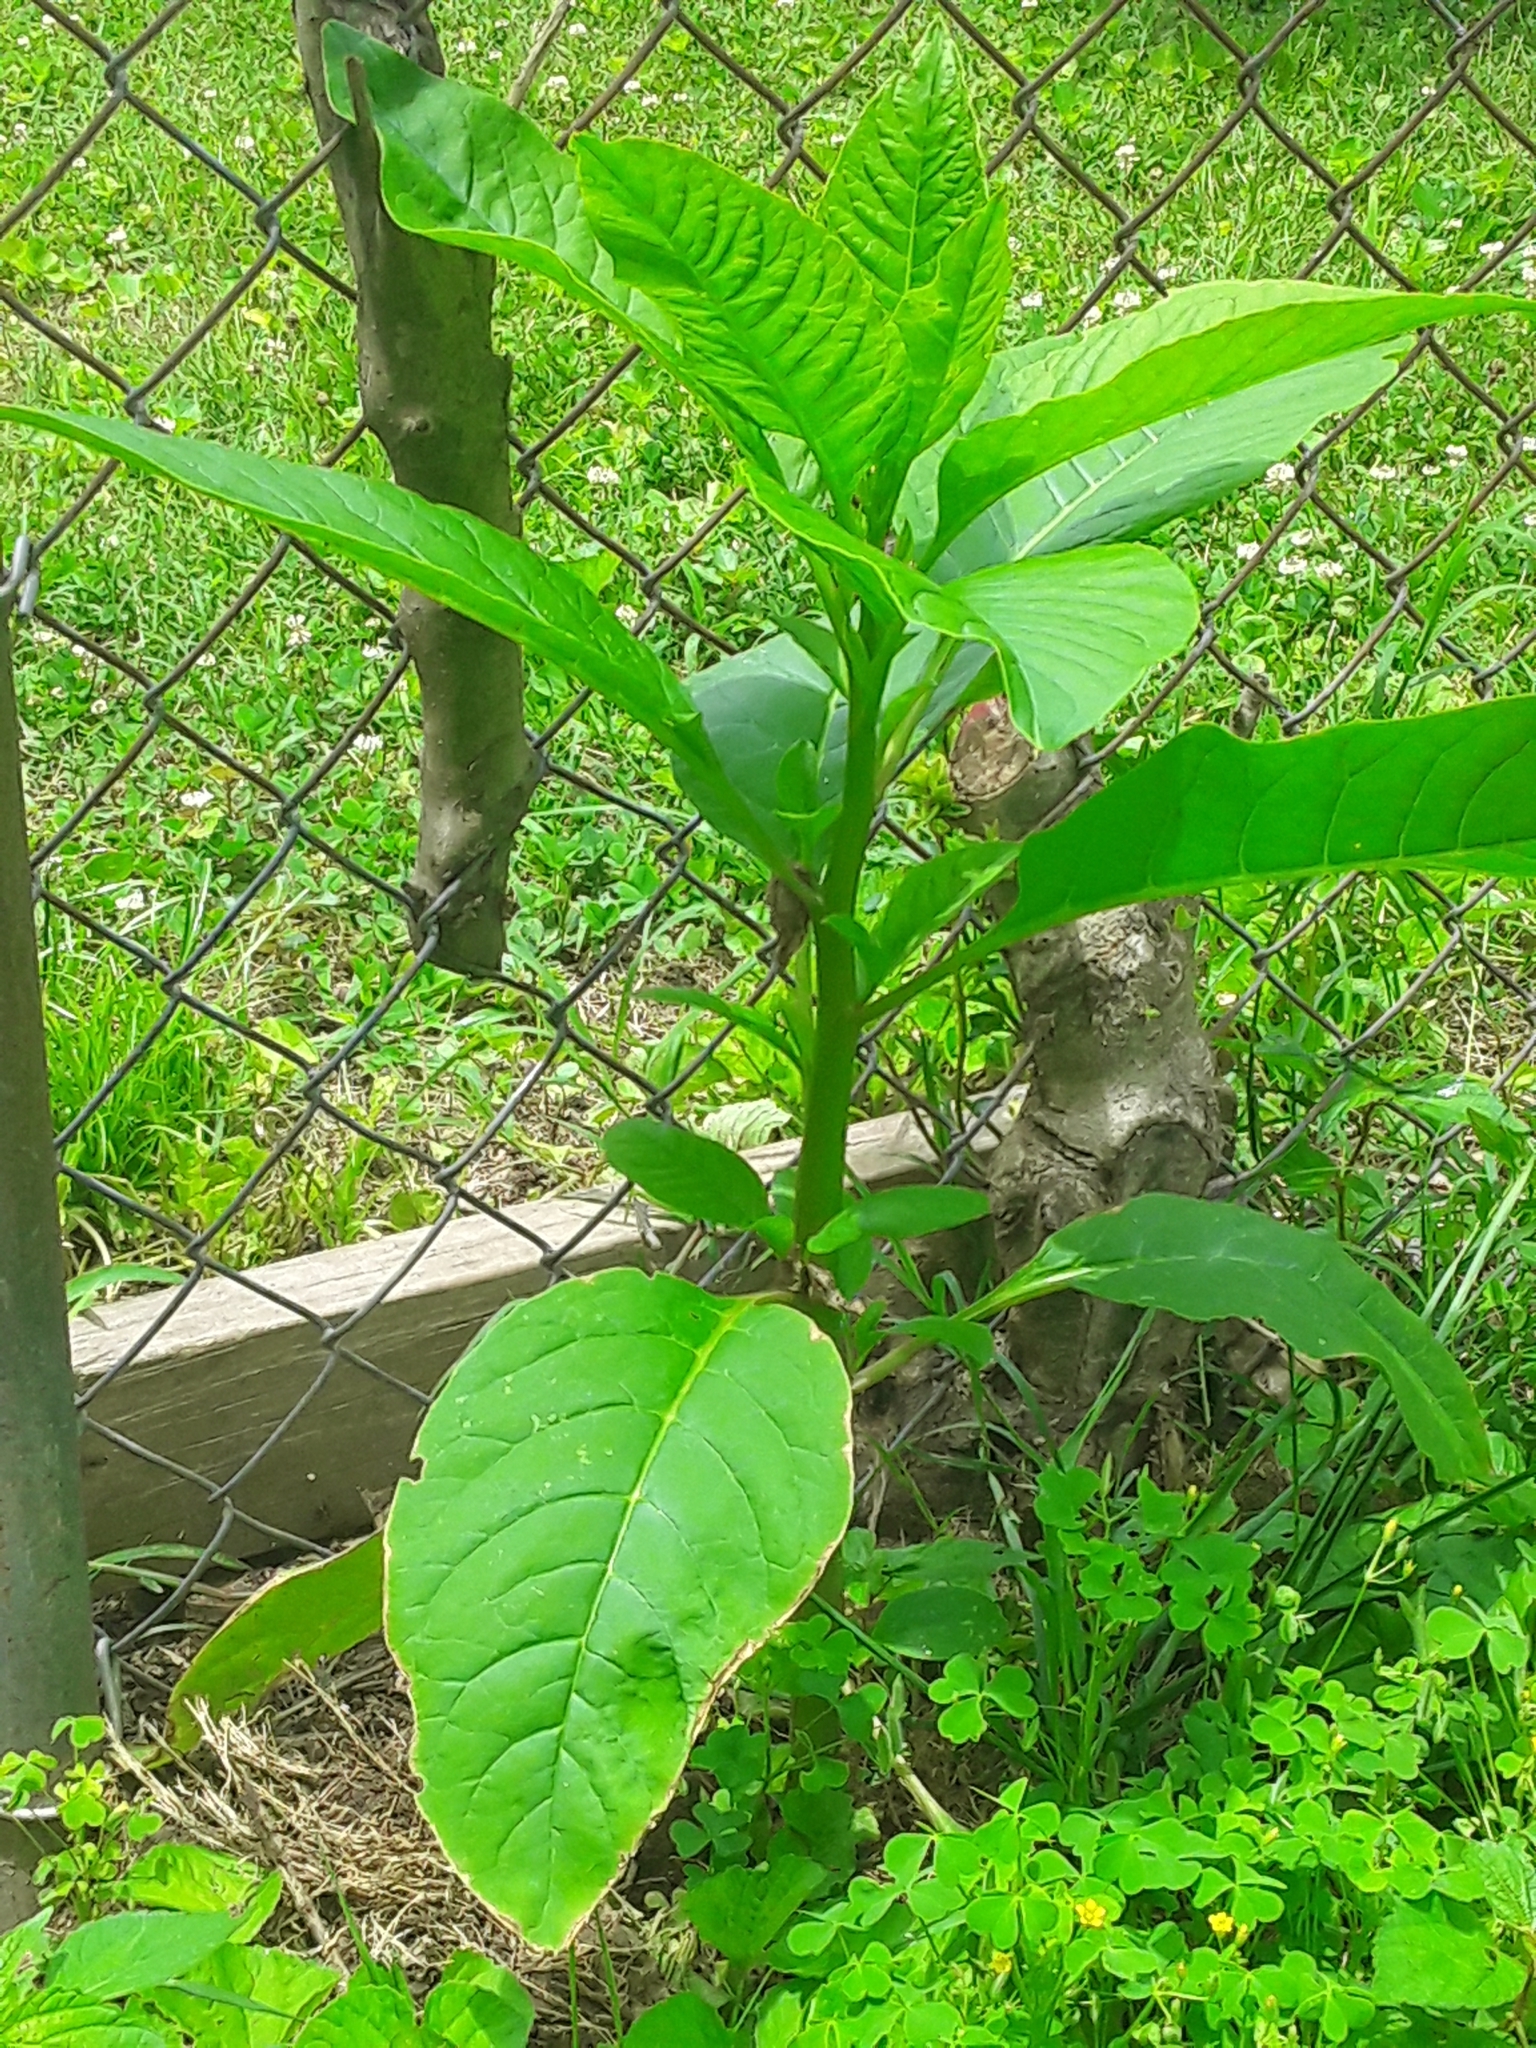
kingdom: Plantae
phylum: Tracheophyta
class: Magnoliopsida
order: Caryophyllales
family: Phytolaccaceae
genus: Phytolacca
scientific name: Phytolacca americana
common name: American pokeweed
